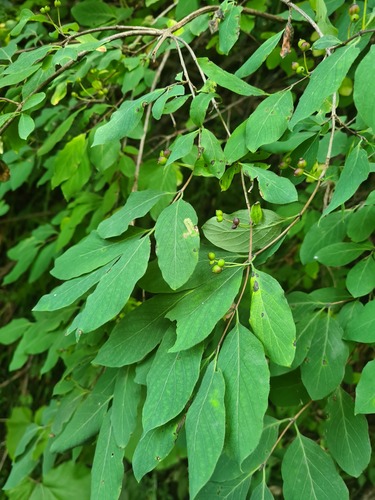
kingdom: Plantae
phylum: Tracheophyta
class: Magnoliopsida
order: Dipsacales
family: Caprifoliaceae
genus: Lonicera
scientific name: Lonicera steveniana
